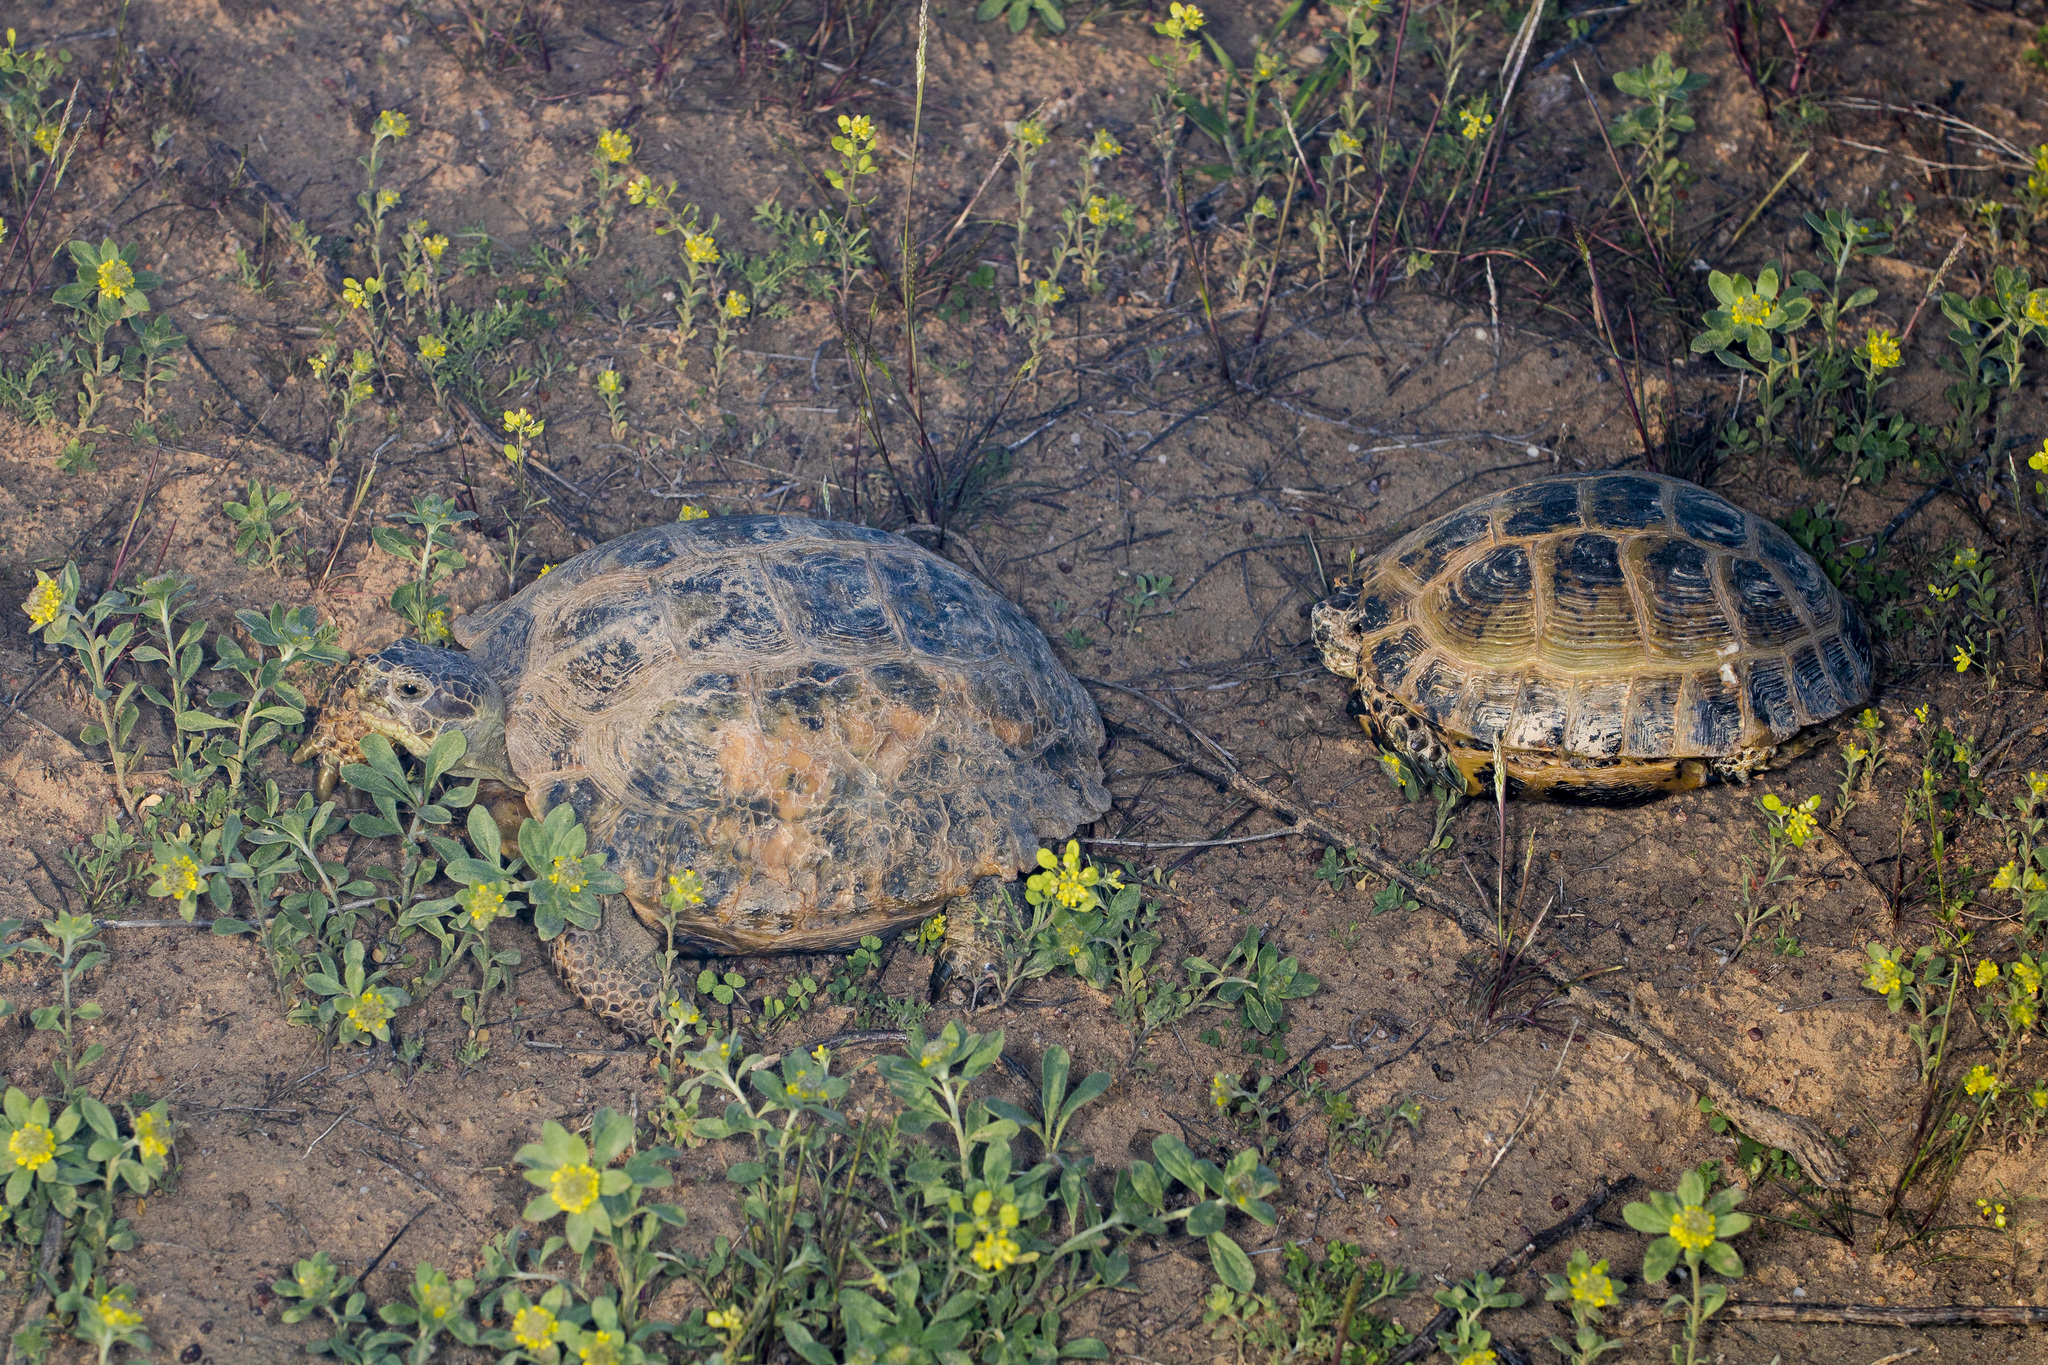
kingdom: Animalia
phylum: Chordata
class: Testudines
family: Testudinidae
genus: Testudo
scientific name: Testudo horsfieldii
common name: Central asia tortoise
